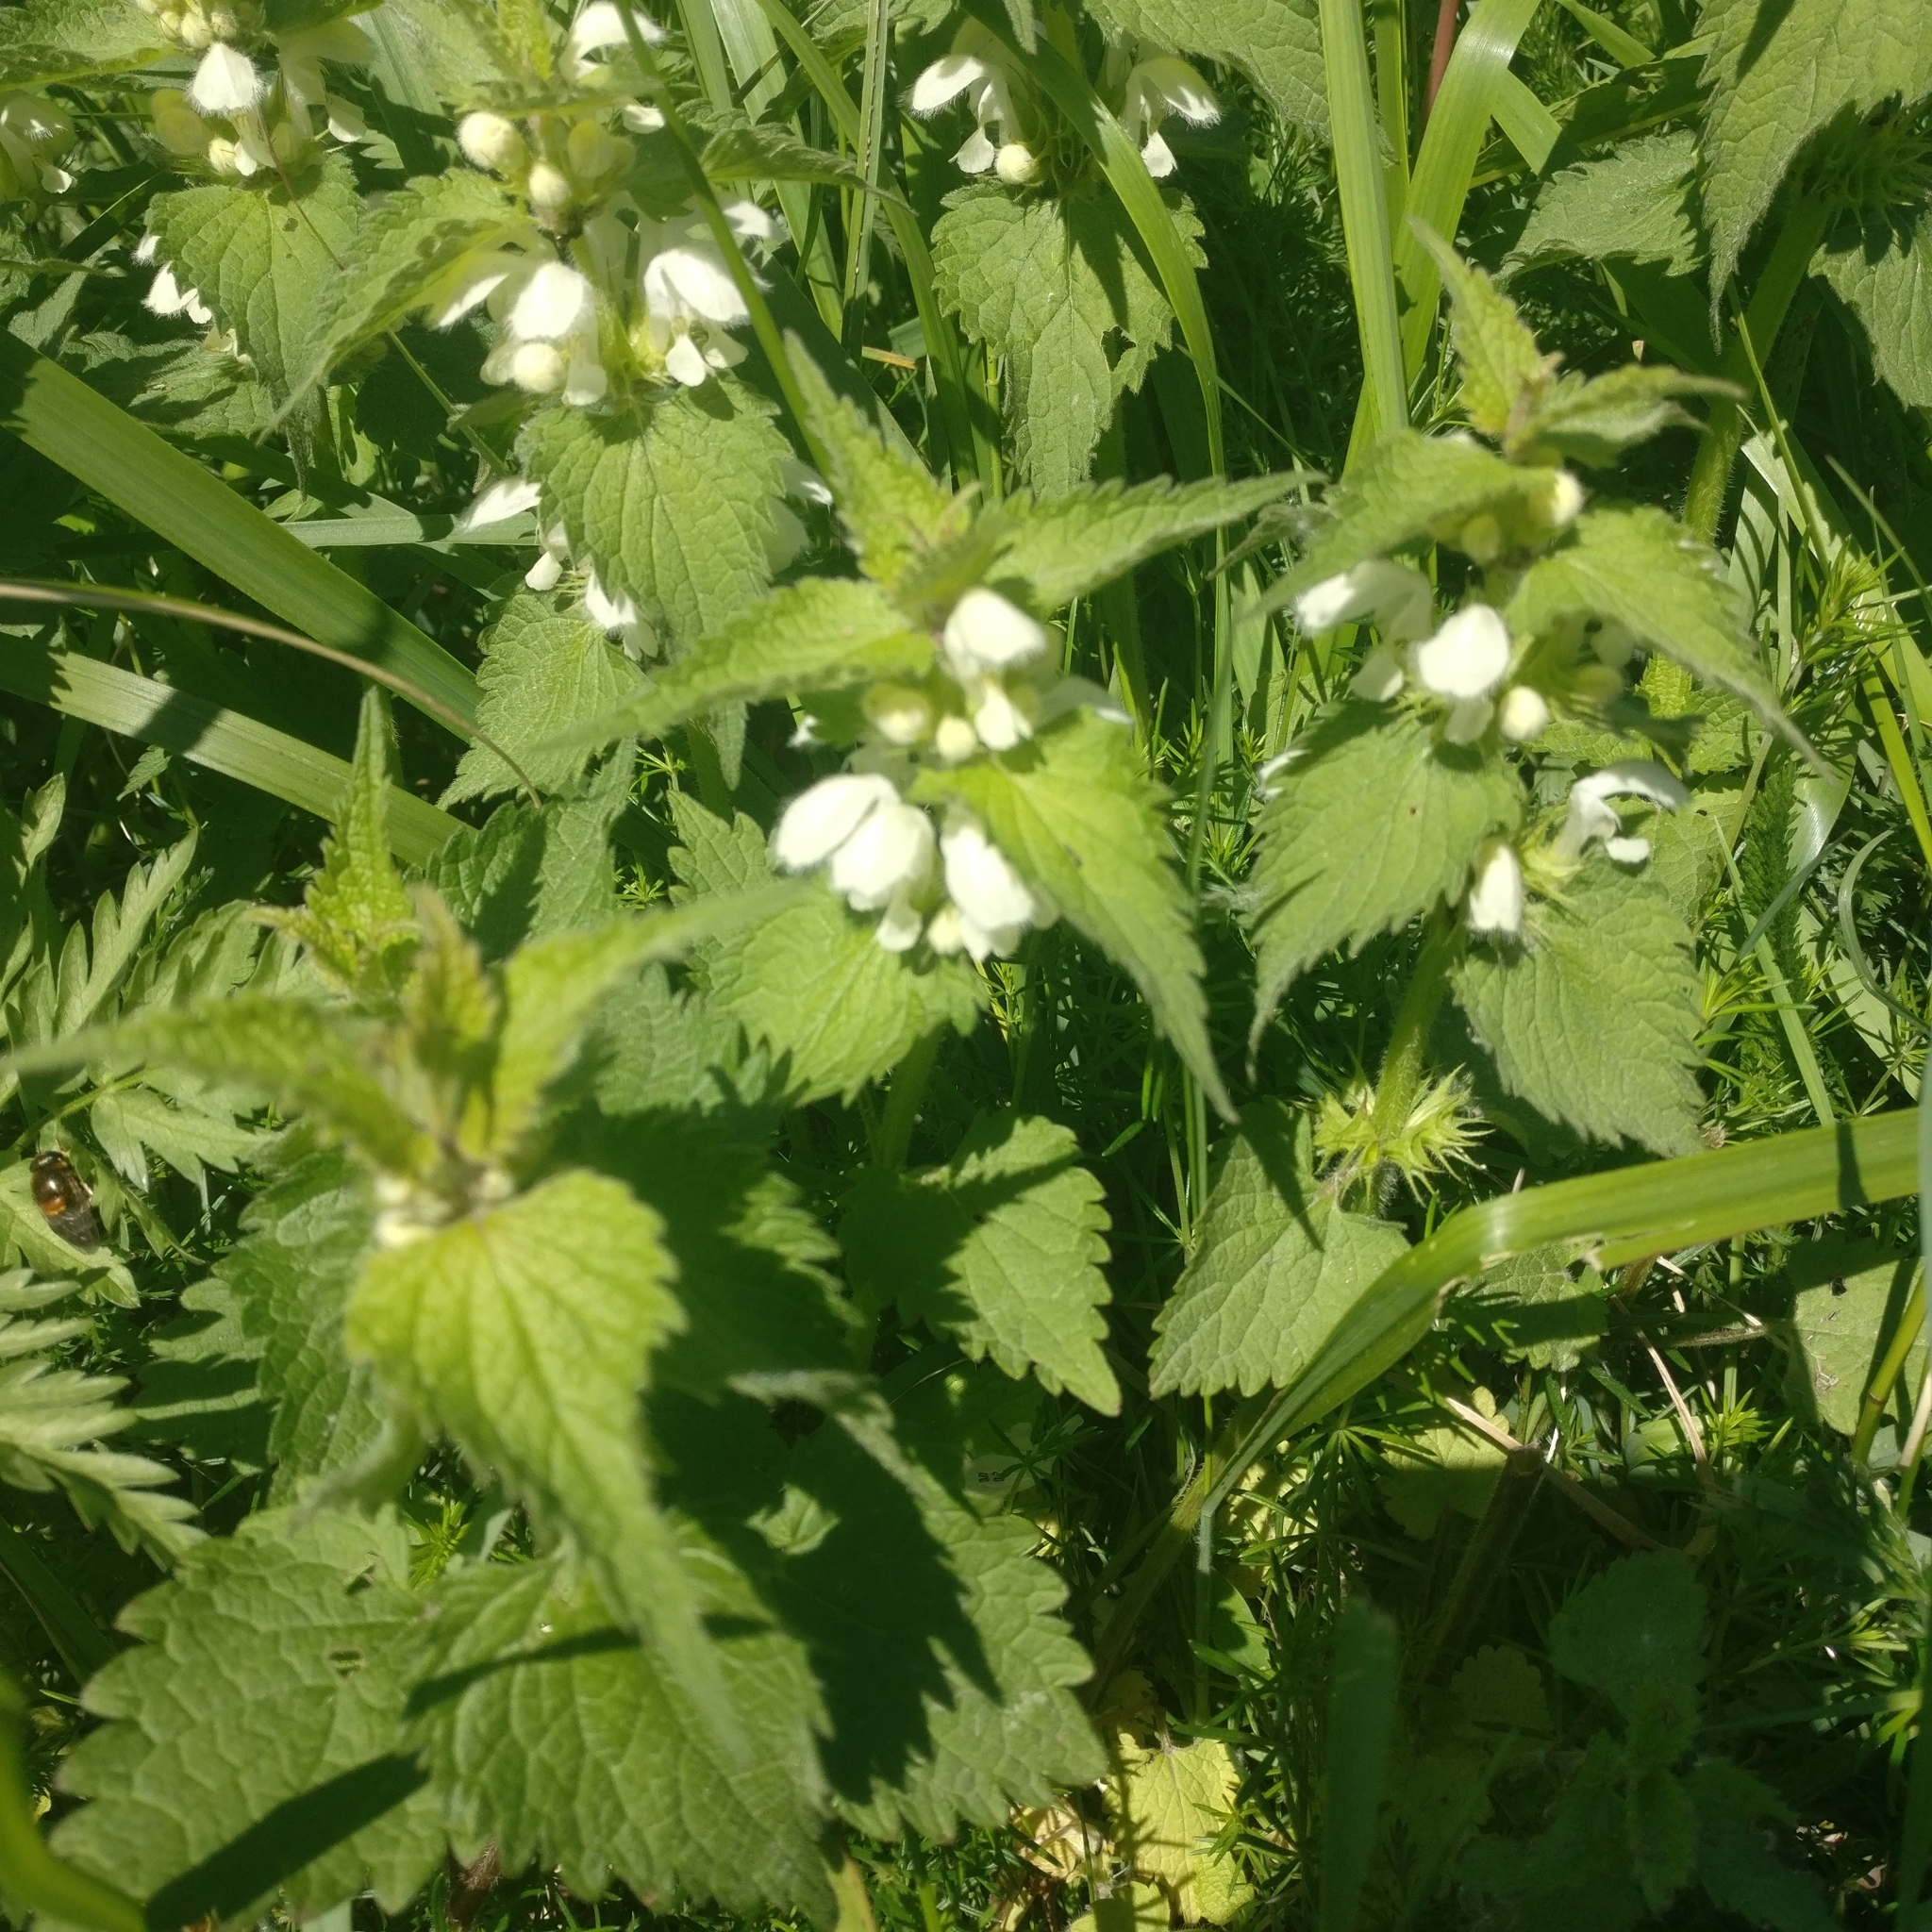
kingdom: Plantae
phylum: Tracheophyta
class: Magnoliopsida
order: Lamiales
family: Lamiaceae
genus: Lamium
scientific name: Lamium album
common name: White dead-nettle
